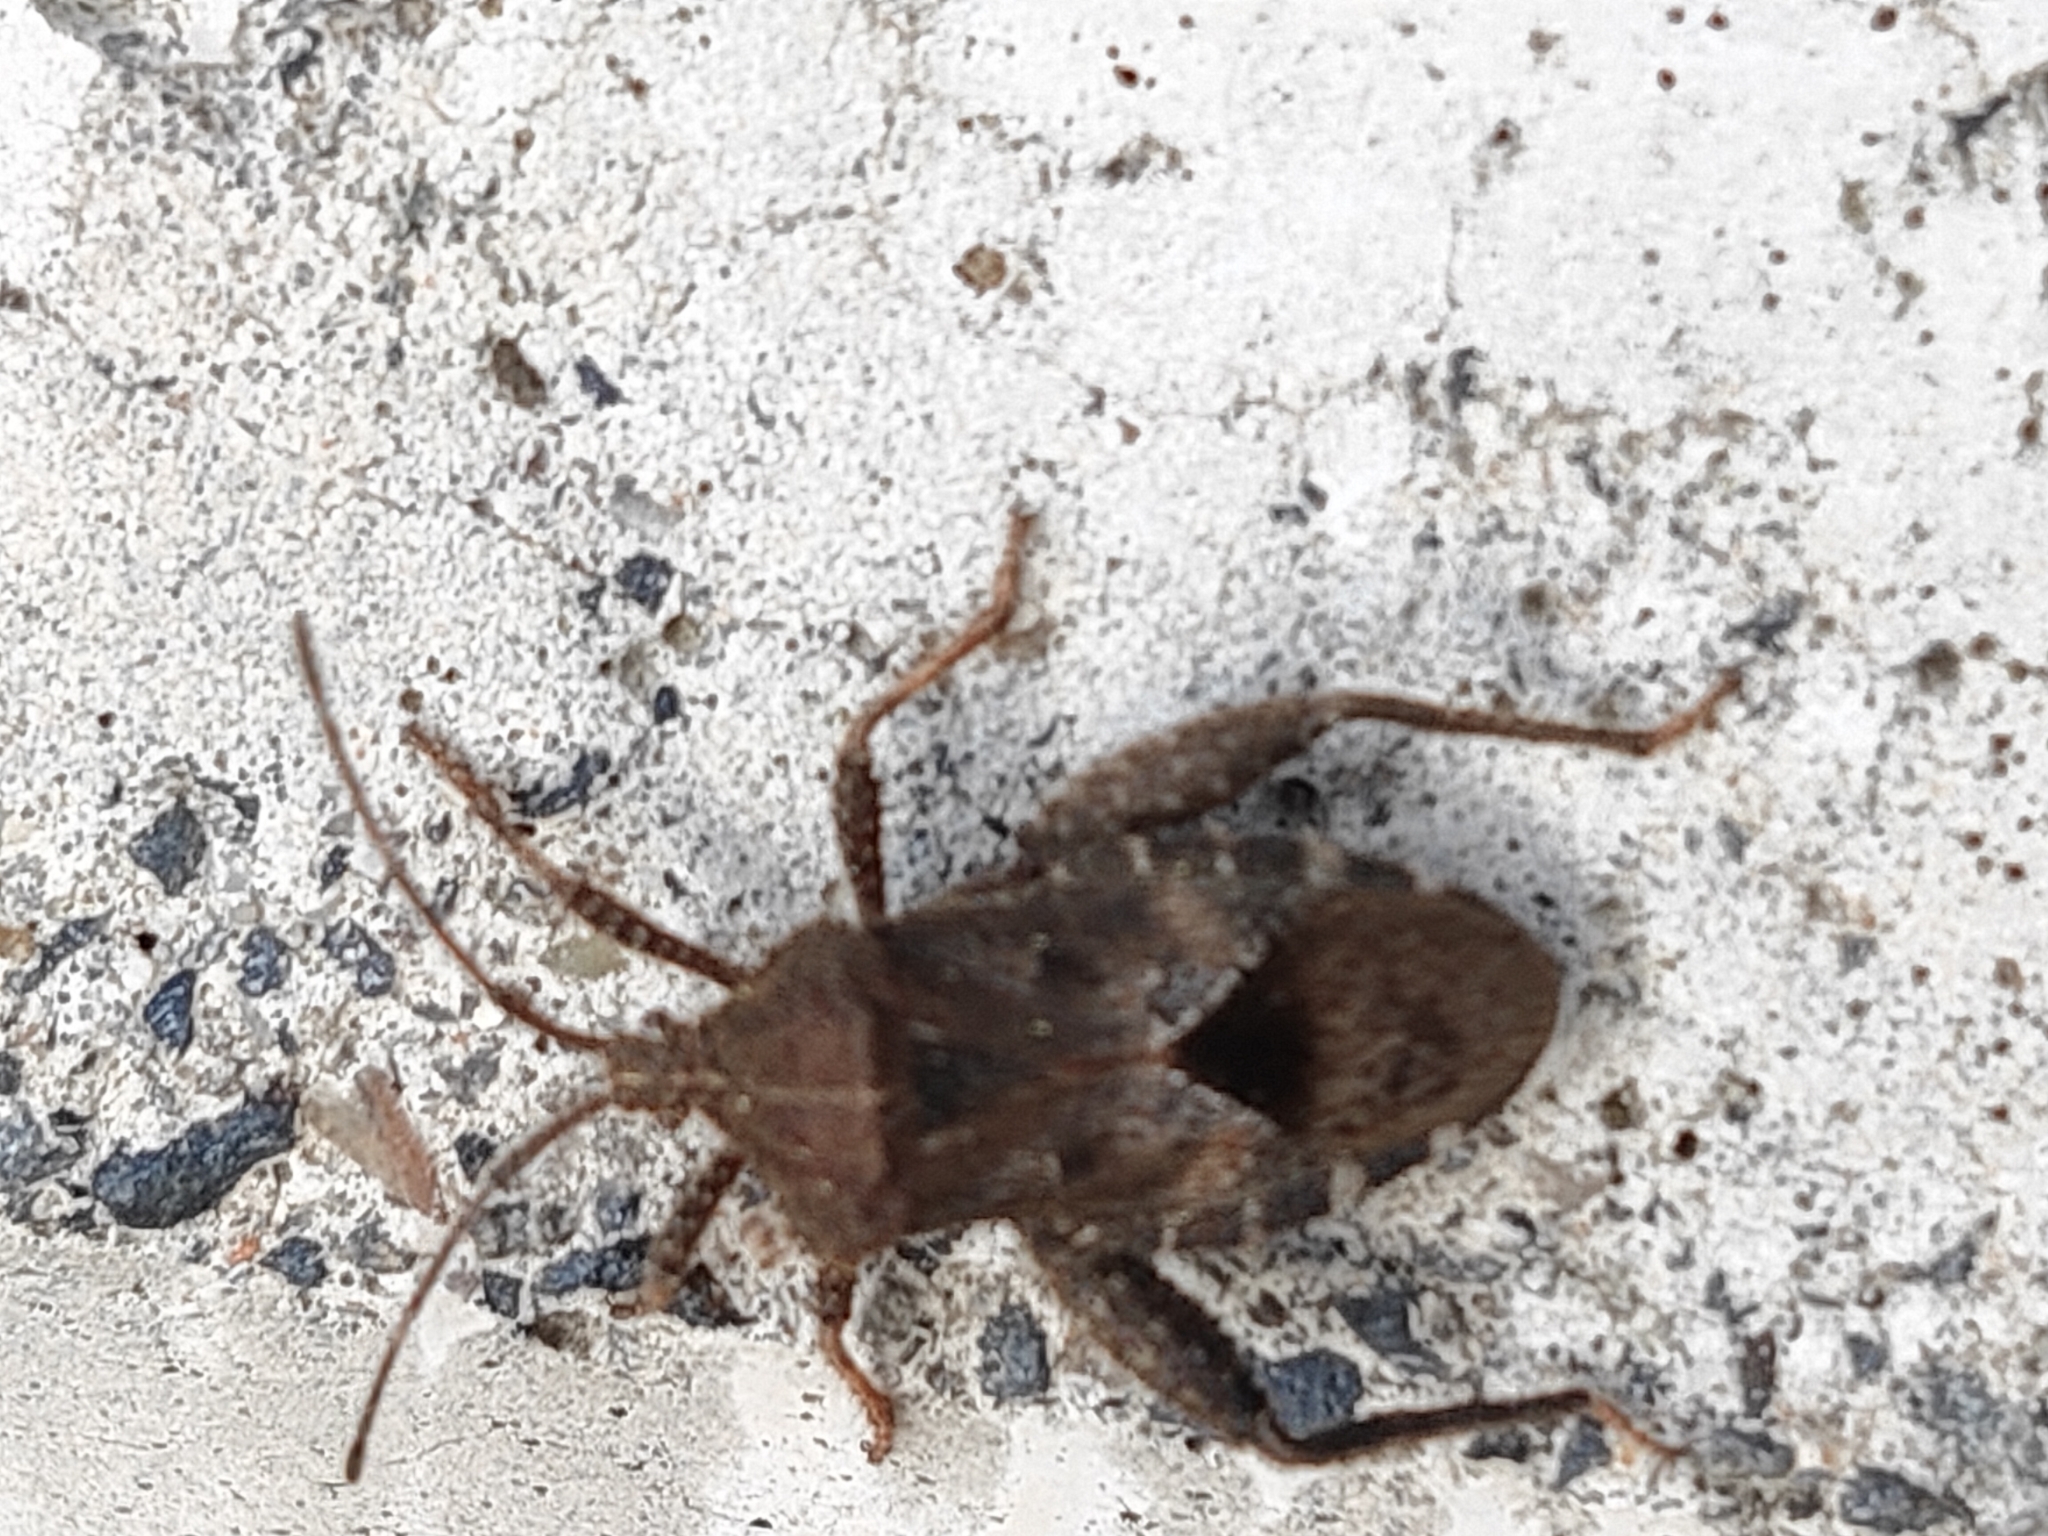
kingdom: Animalia
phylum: Arthropoda
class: Insecta
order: Hemiptera
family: Coreidae
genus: Acanthocoris
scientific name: Acanthocoris sordidus
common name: Winter cherry bug
